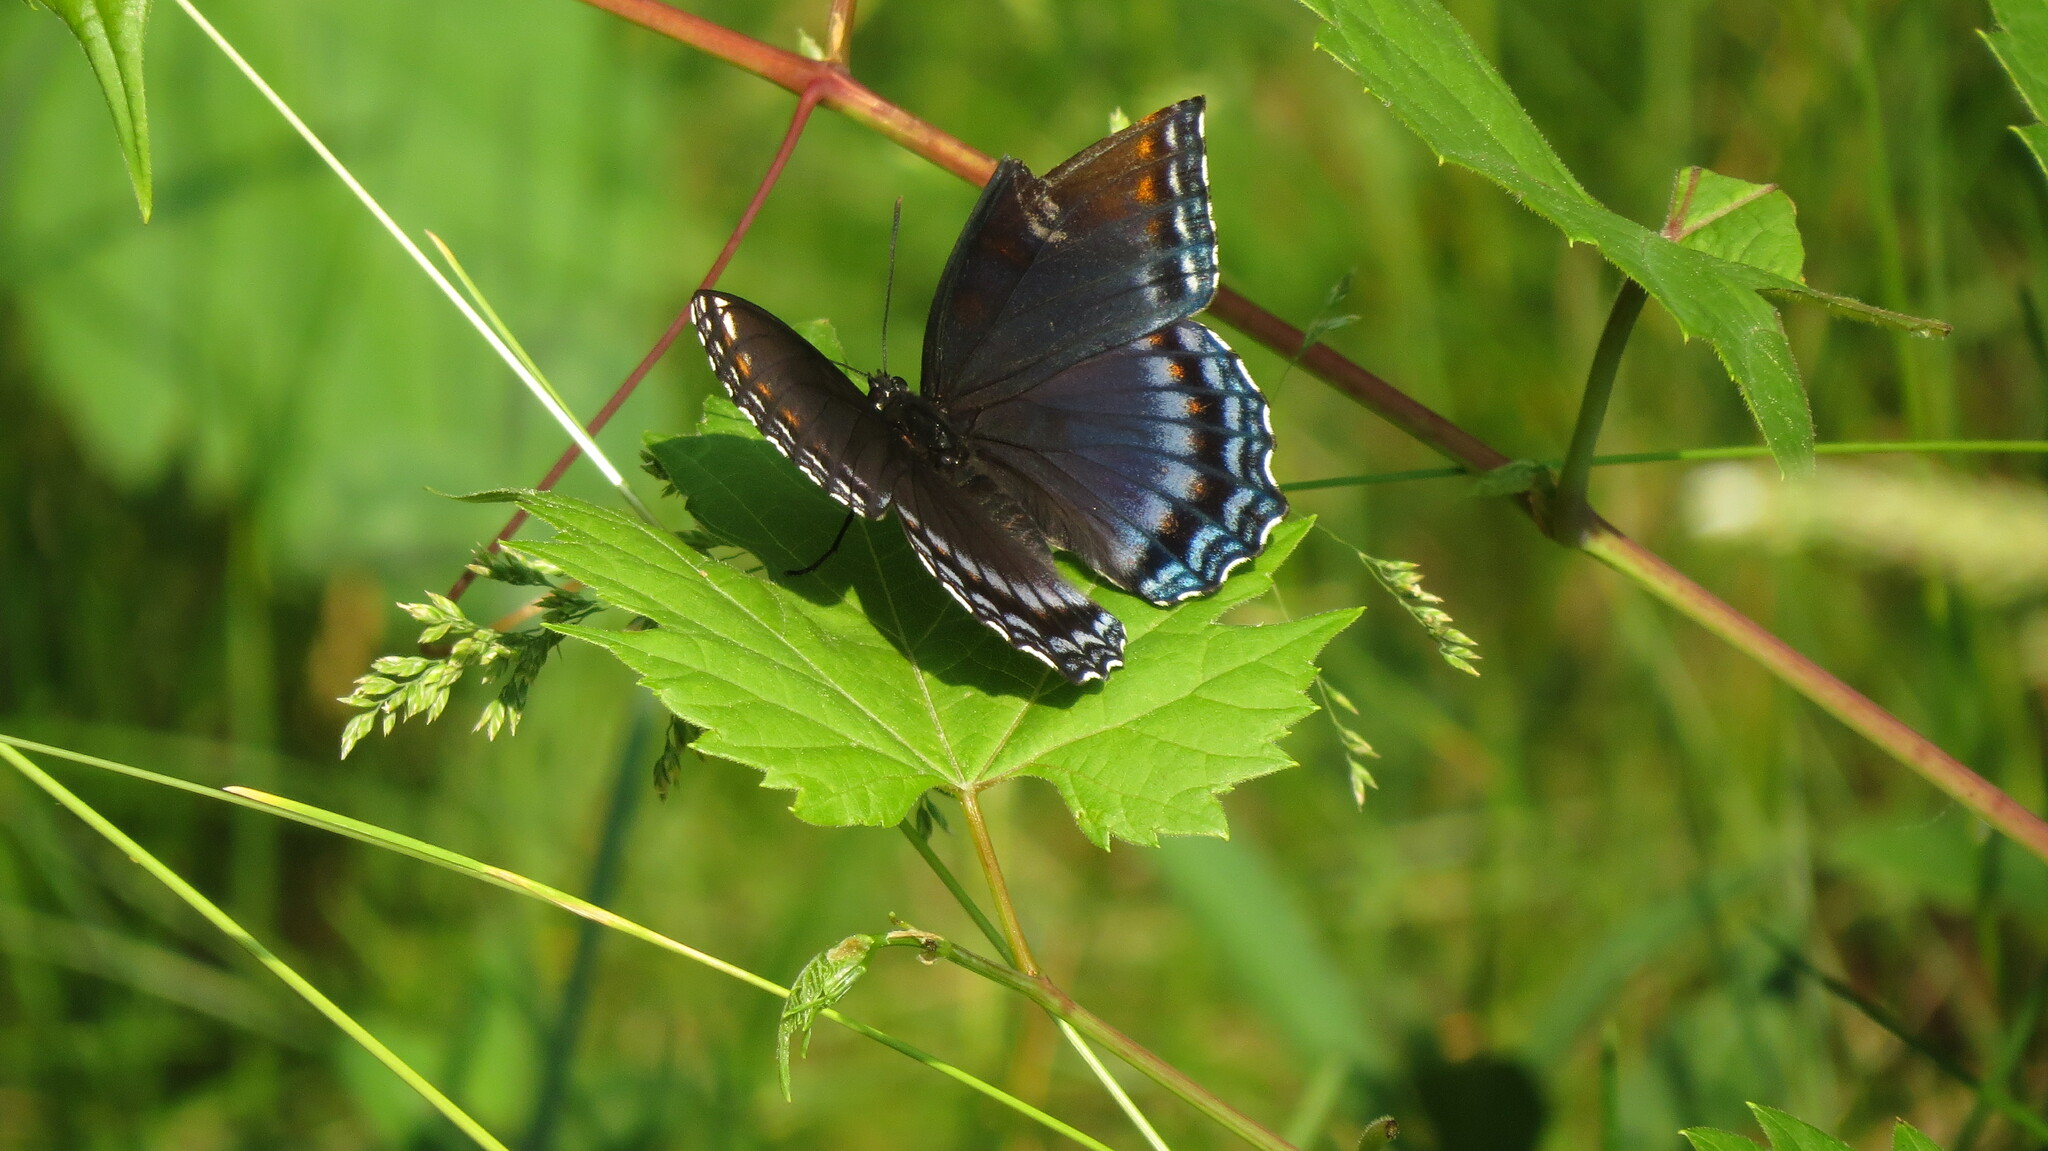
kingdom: Animalia
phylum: Arthropoda
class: Insecta
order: Lepidoptera
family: Nymphalidae
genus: Limenitis
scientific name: Limenitis astyanax
